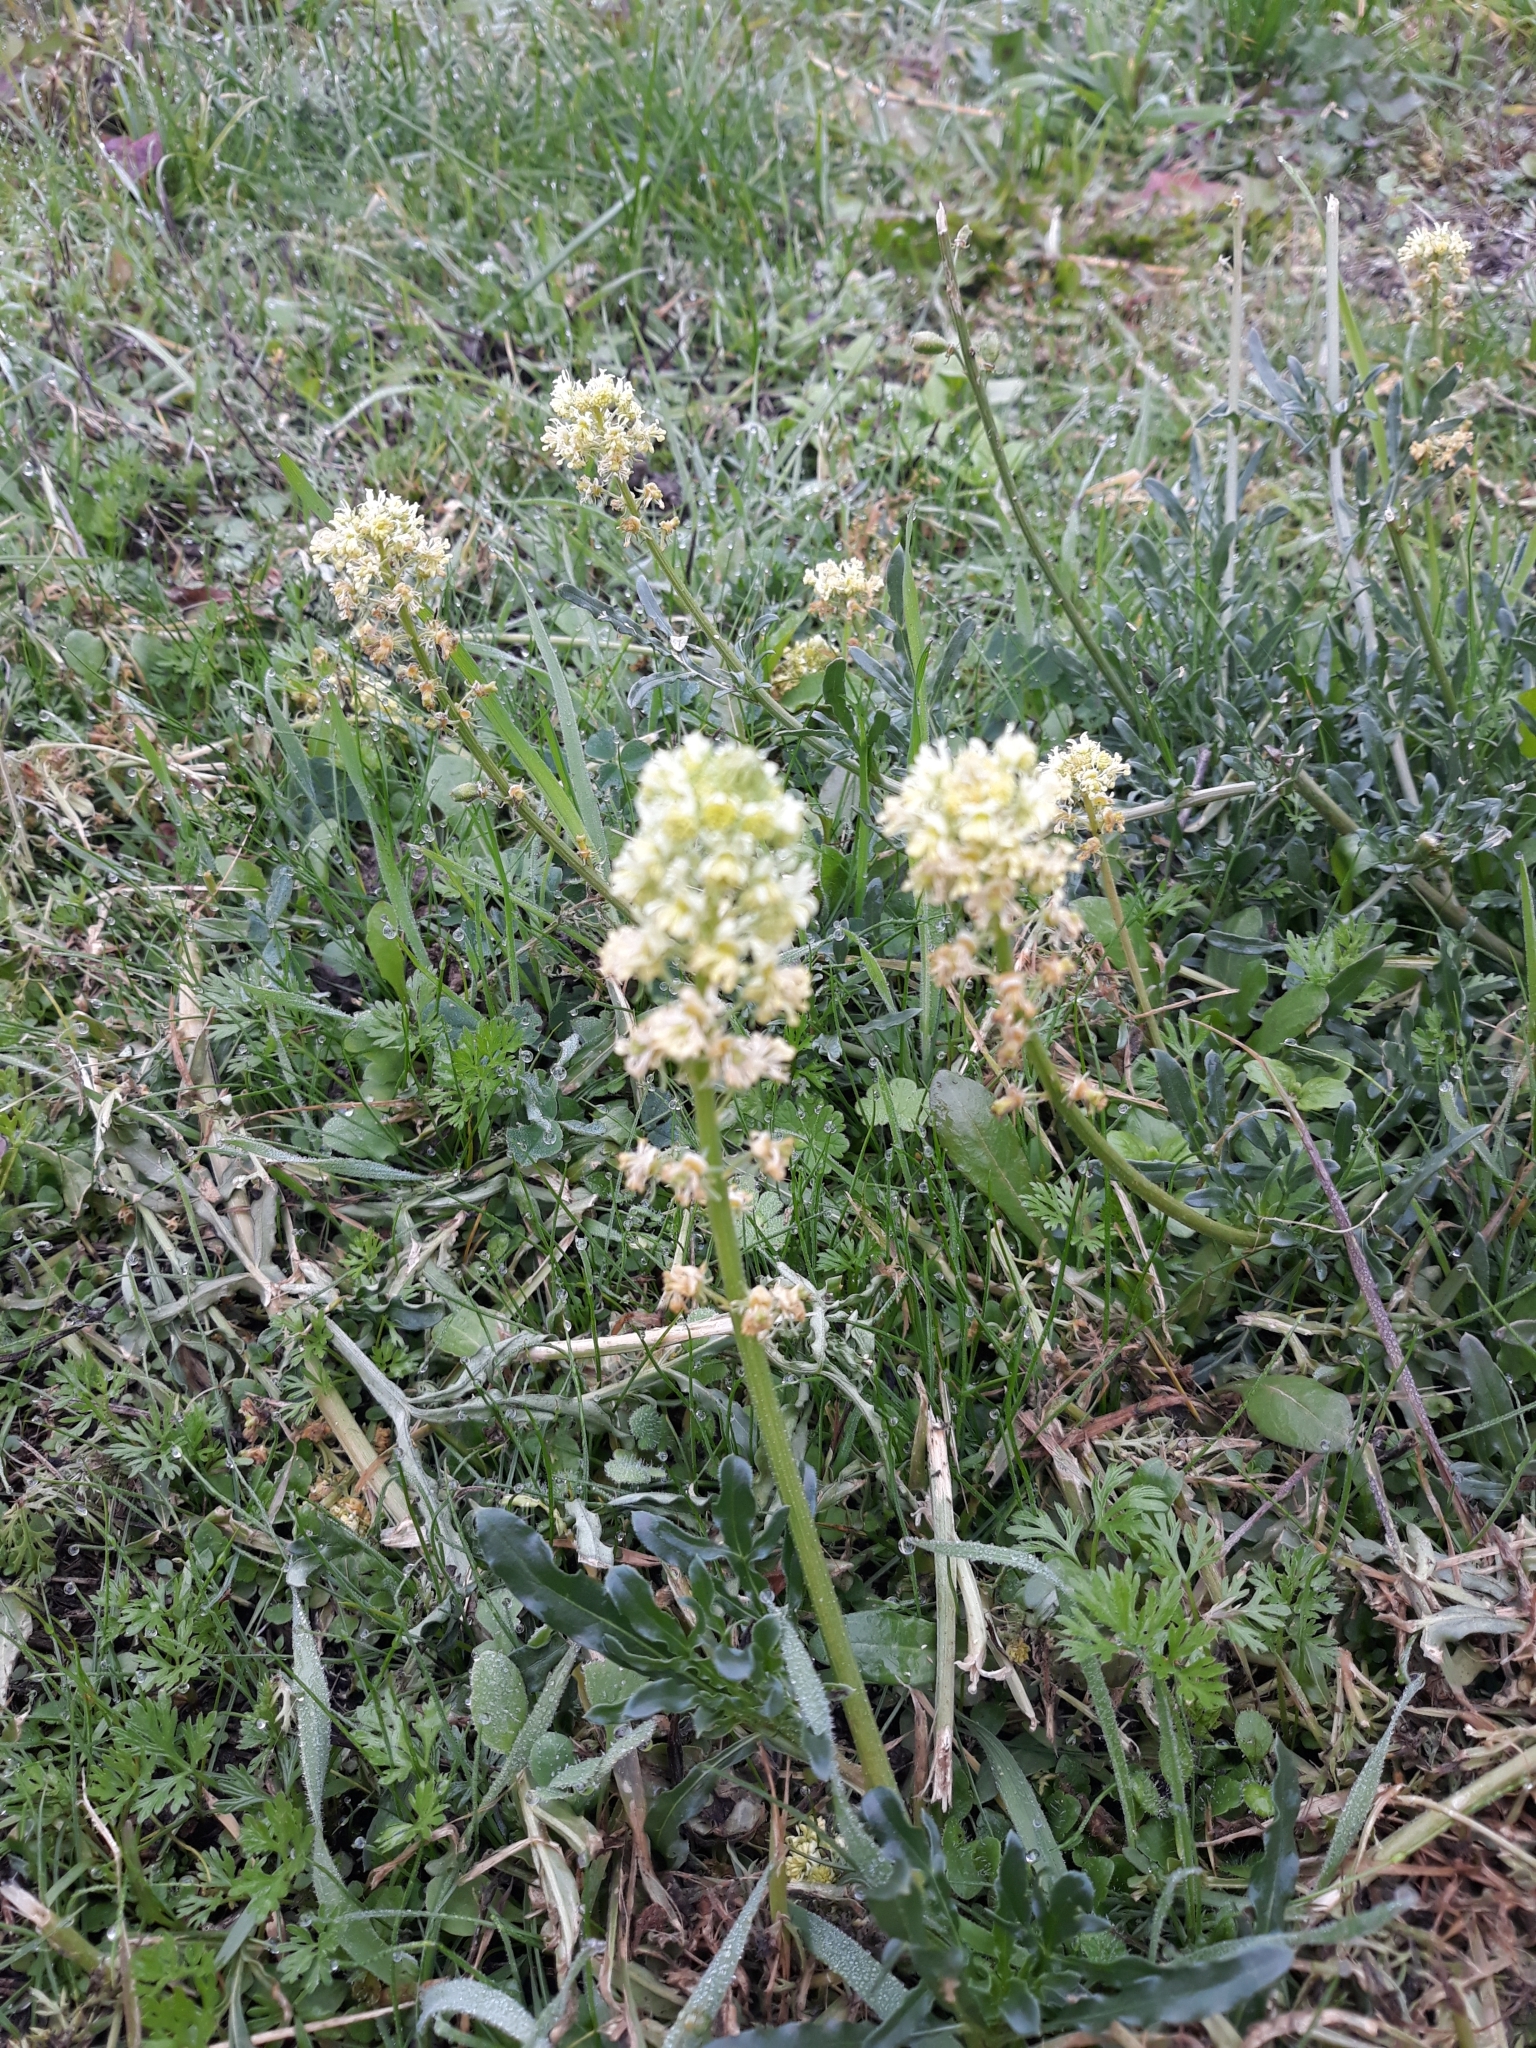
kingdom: Plantae
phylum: Tracheophyta
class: Magnoliopsida
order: Brassicales
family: Resedaceae
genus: Reseda
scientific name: Reseda lutea
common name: Wild mignonette
